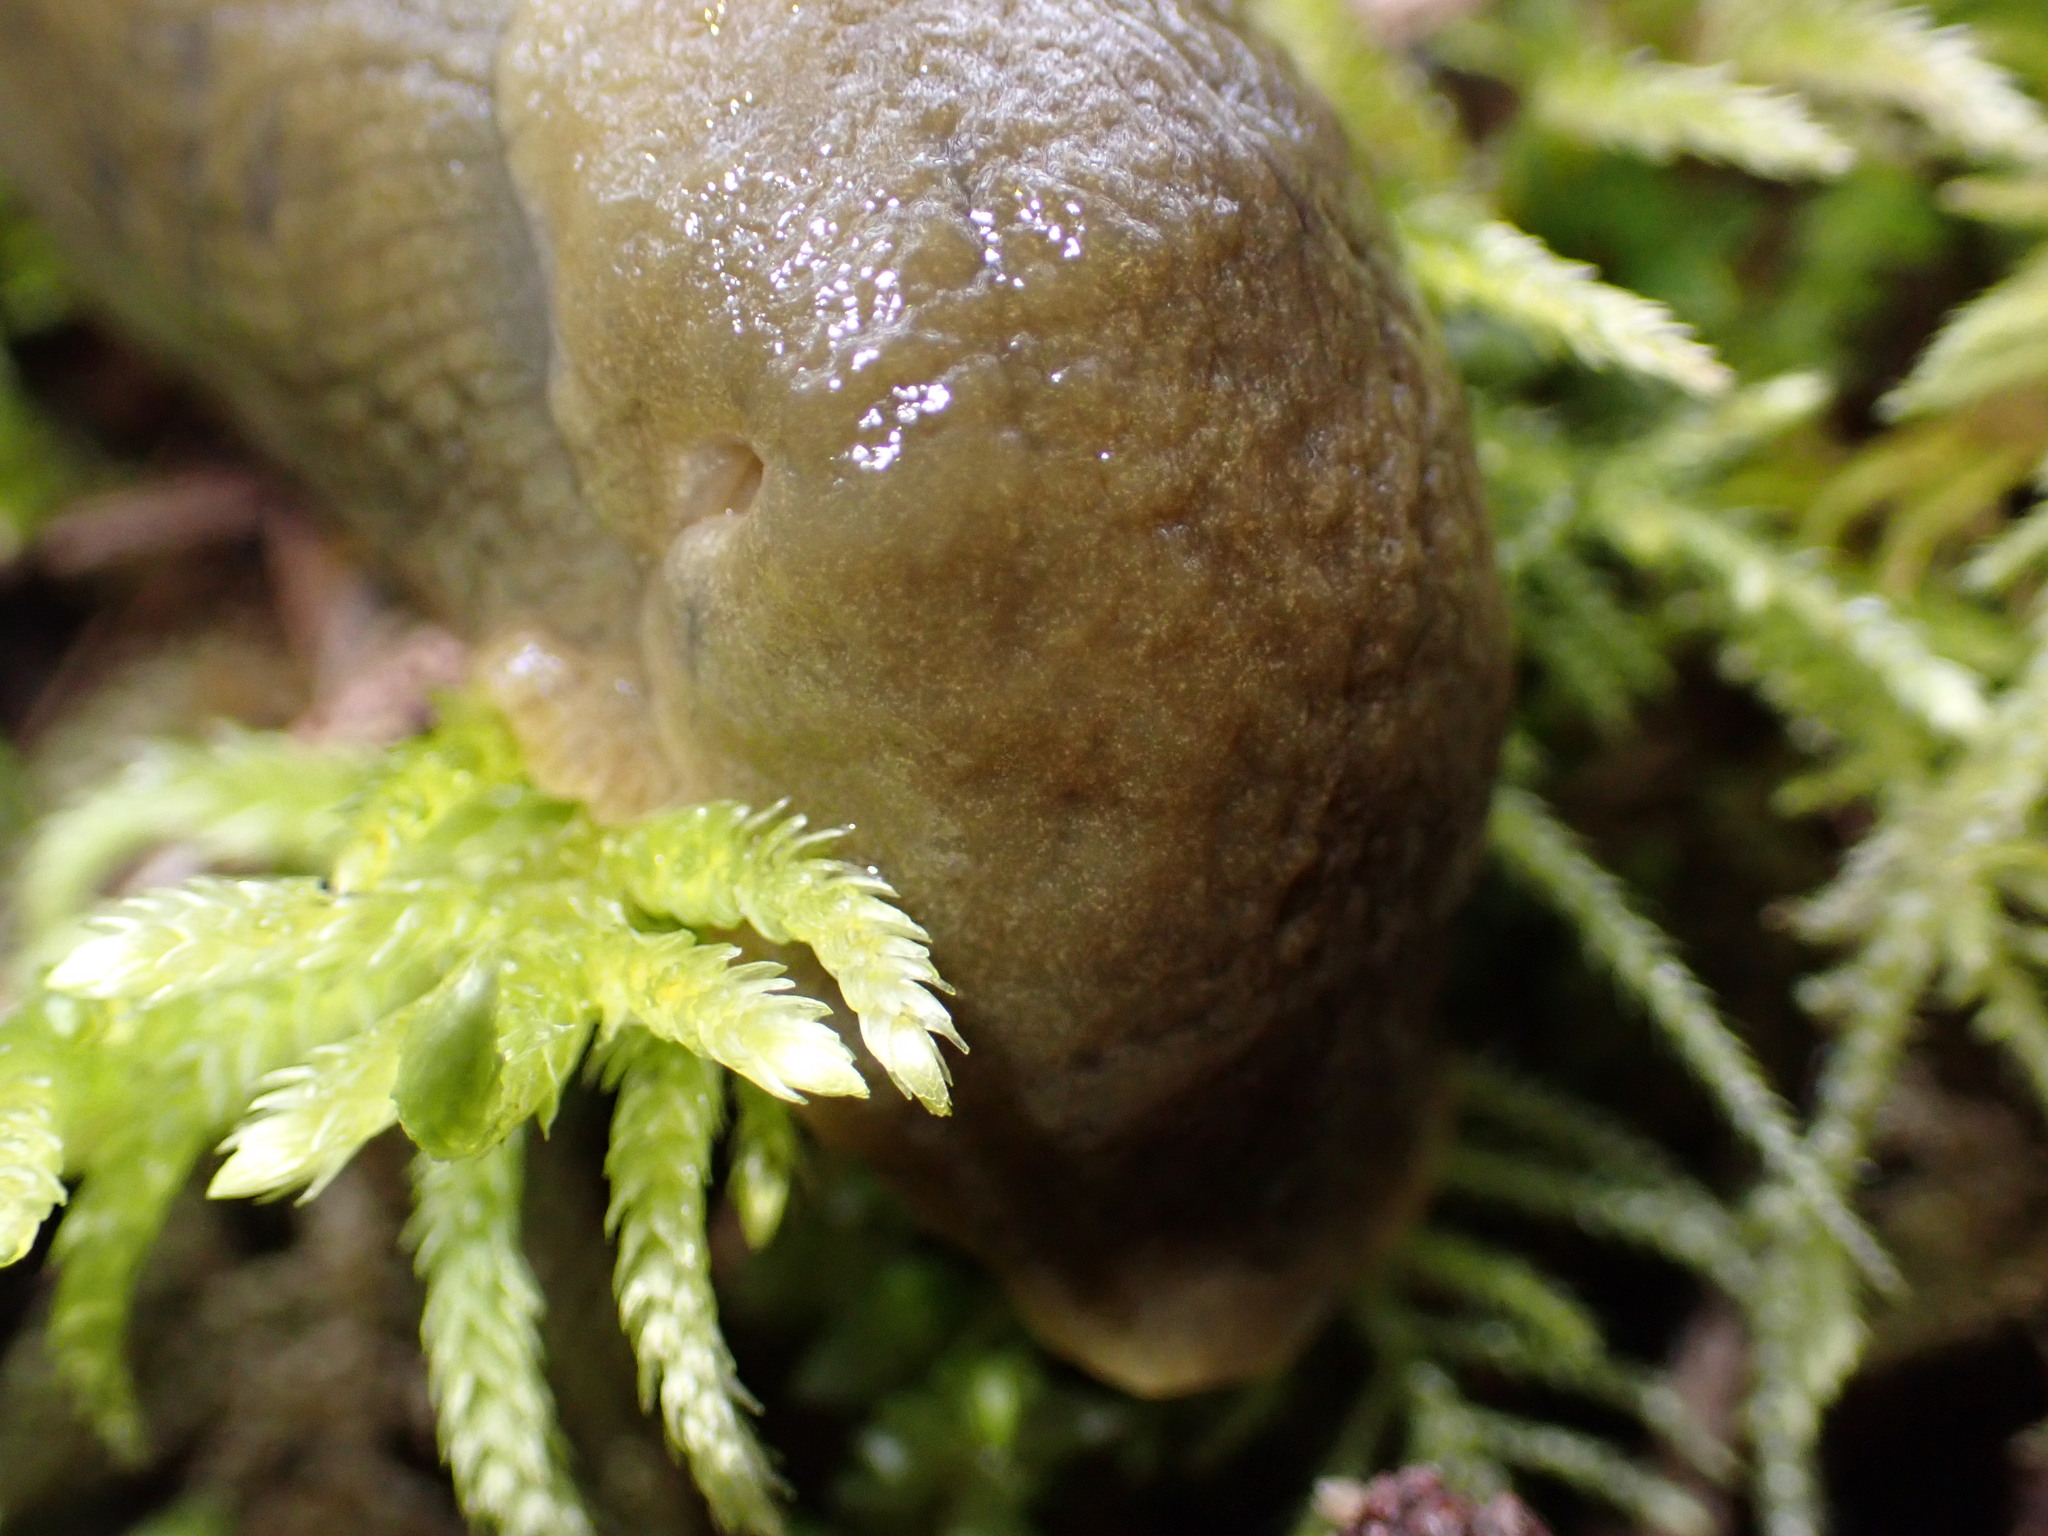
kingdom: Animalia
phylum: Mollusca
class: Gastropoda
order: Stylommatophora
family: Ariolimacidae
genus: Ariolimax
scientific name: Ariolimax columbianus
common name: Pacific banana slug
